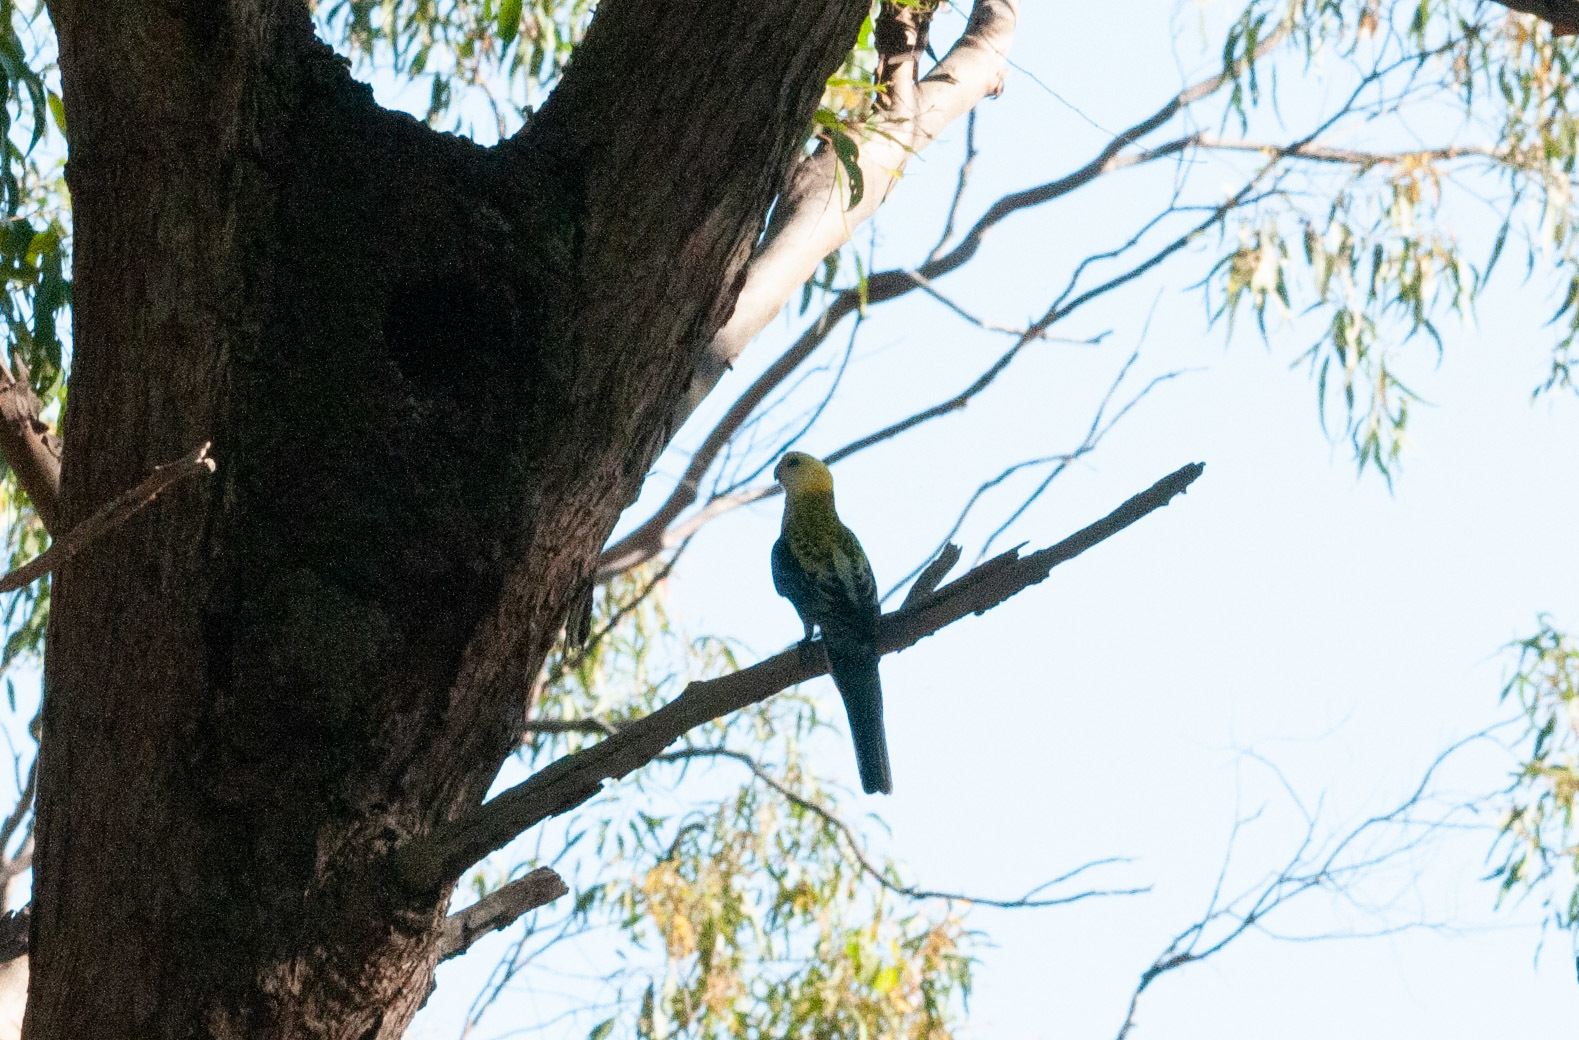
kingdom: Animalia
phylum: Chordata
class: Aves
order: Psittaciformes
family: Psittacidae
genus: Platycercus
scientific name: Platycercus adscitus
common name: Pale-headed rosella
